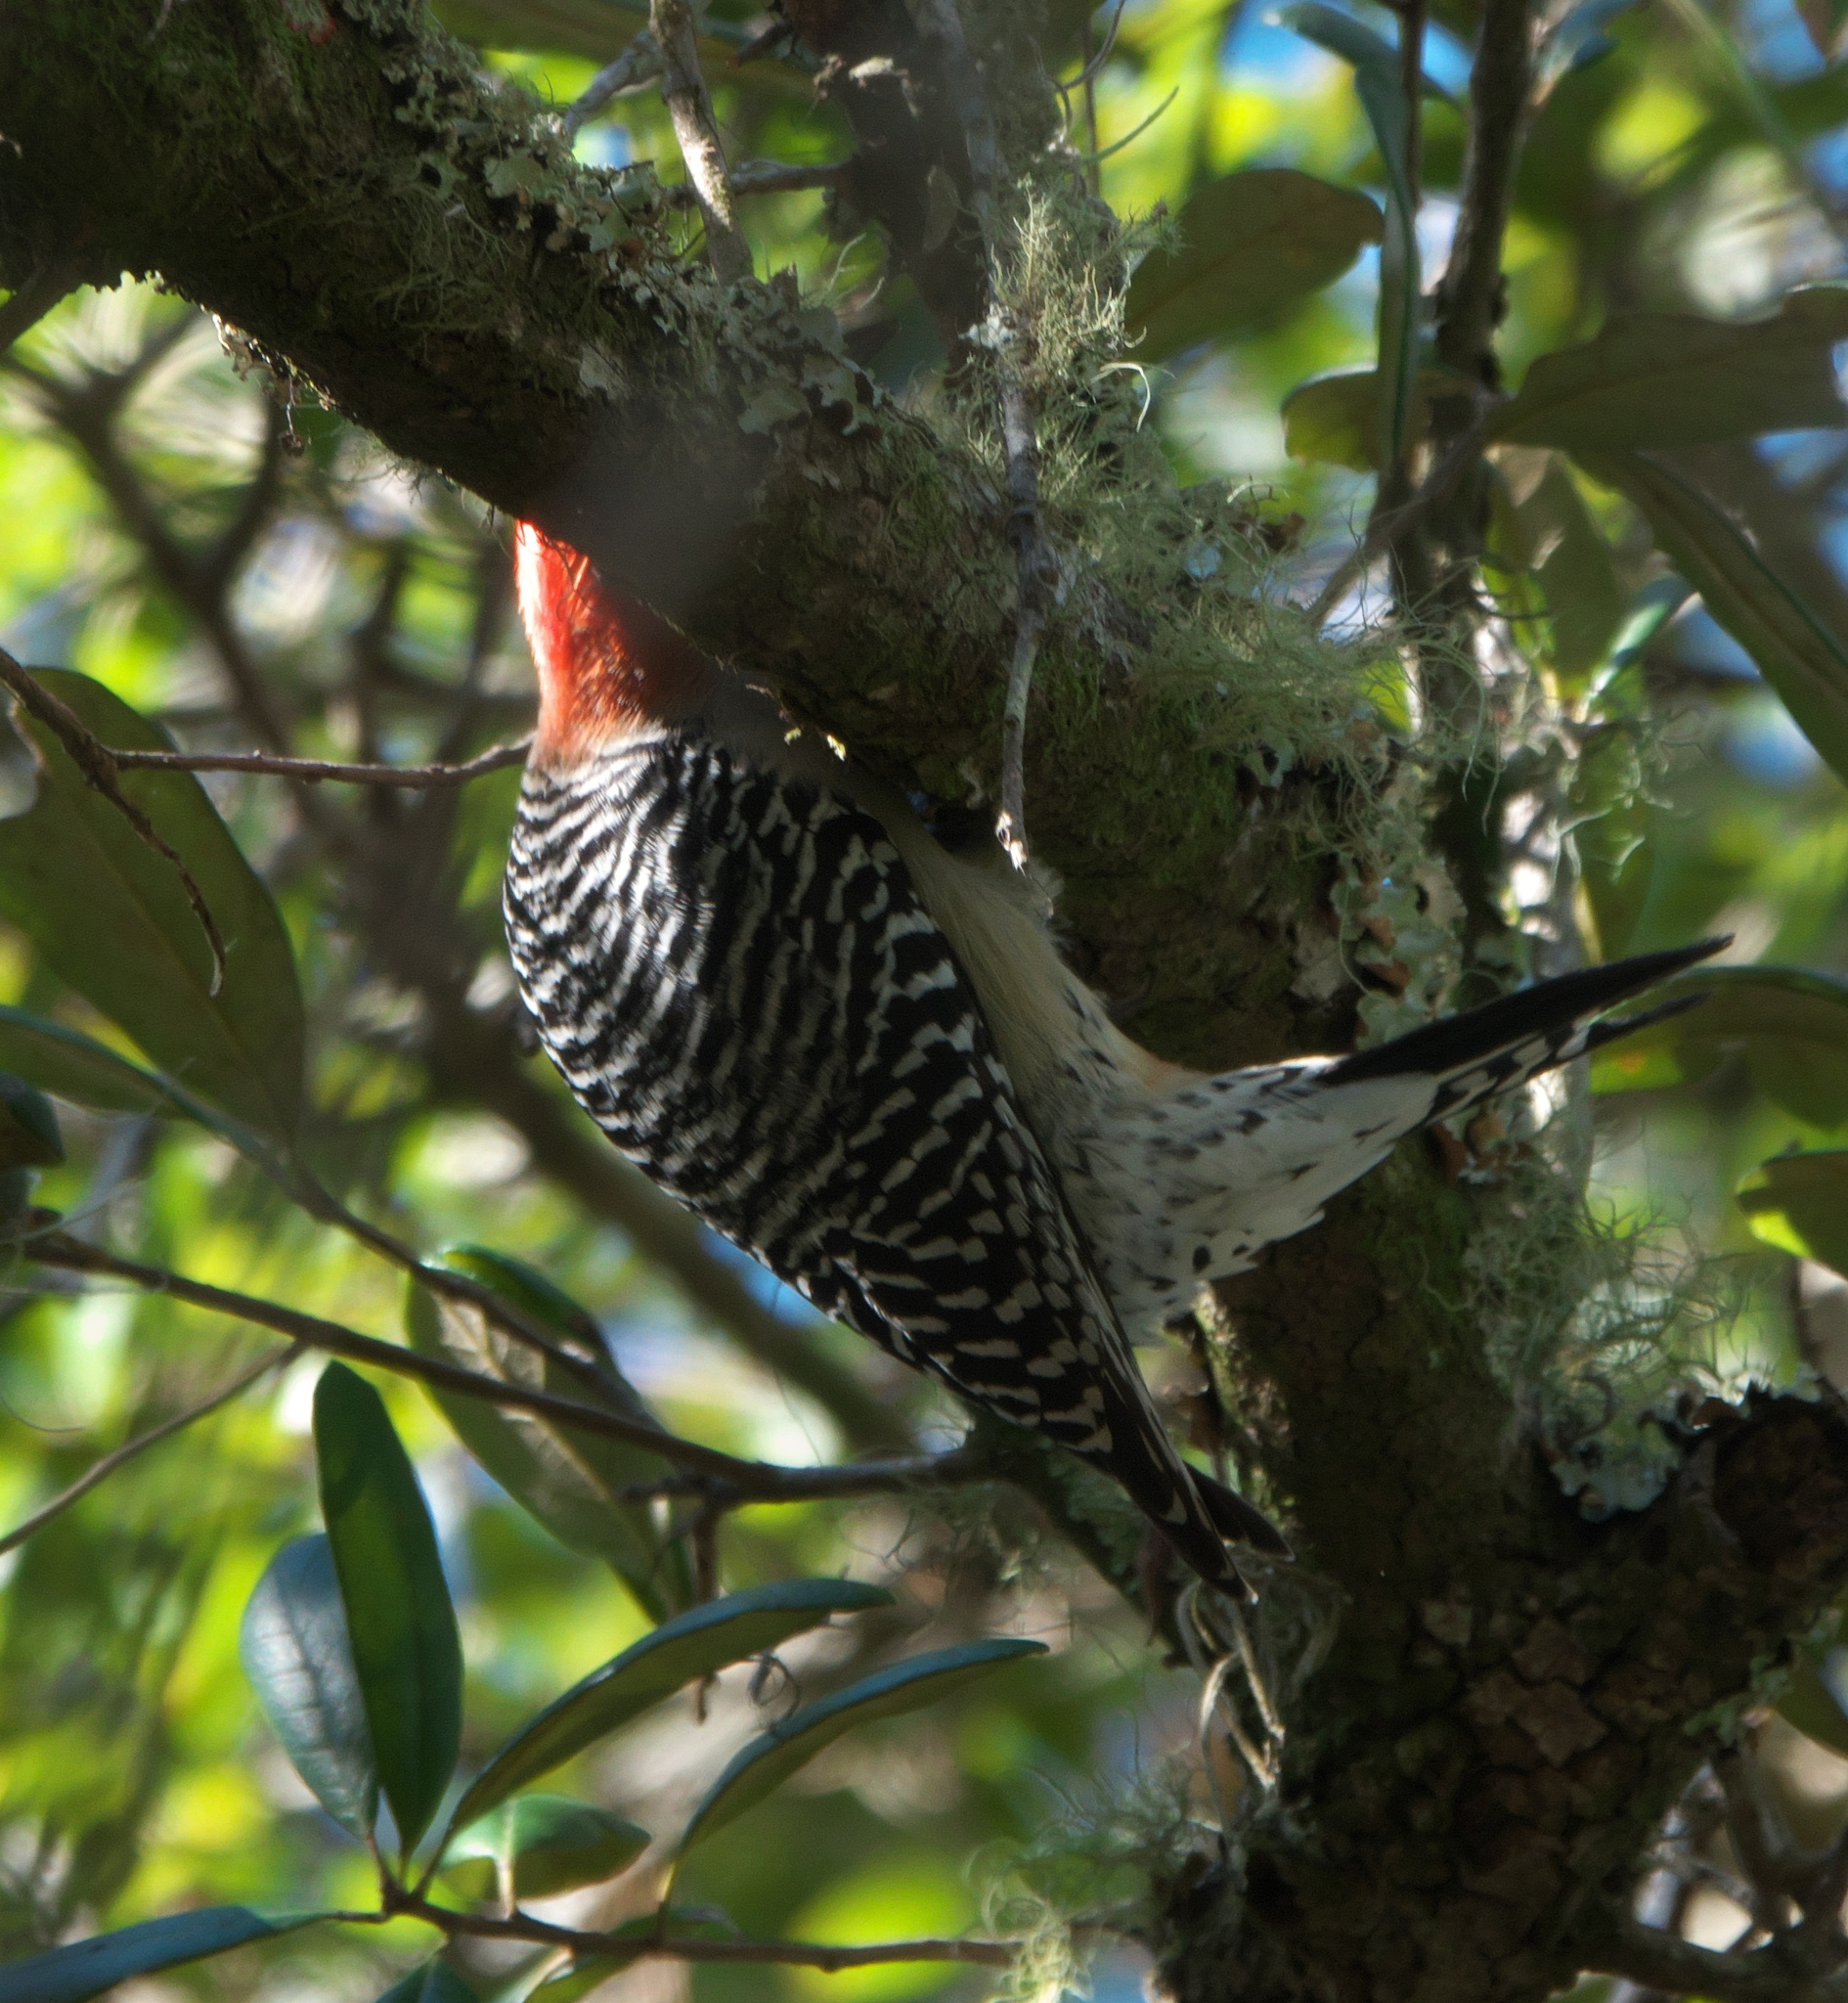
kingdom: Animalia
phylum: Chordata
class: Aves
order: Piciformes
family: Picidae
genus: Melanerpes
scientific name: Melanerpes carolinus
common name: Red-bellied woodpecker
